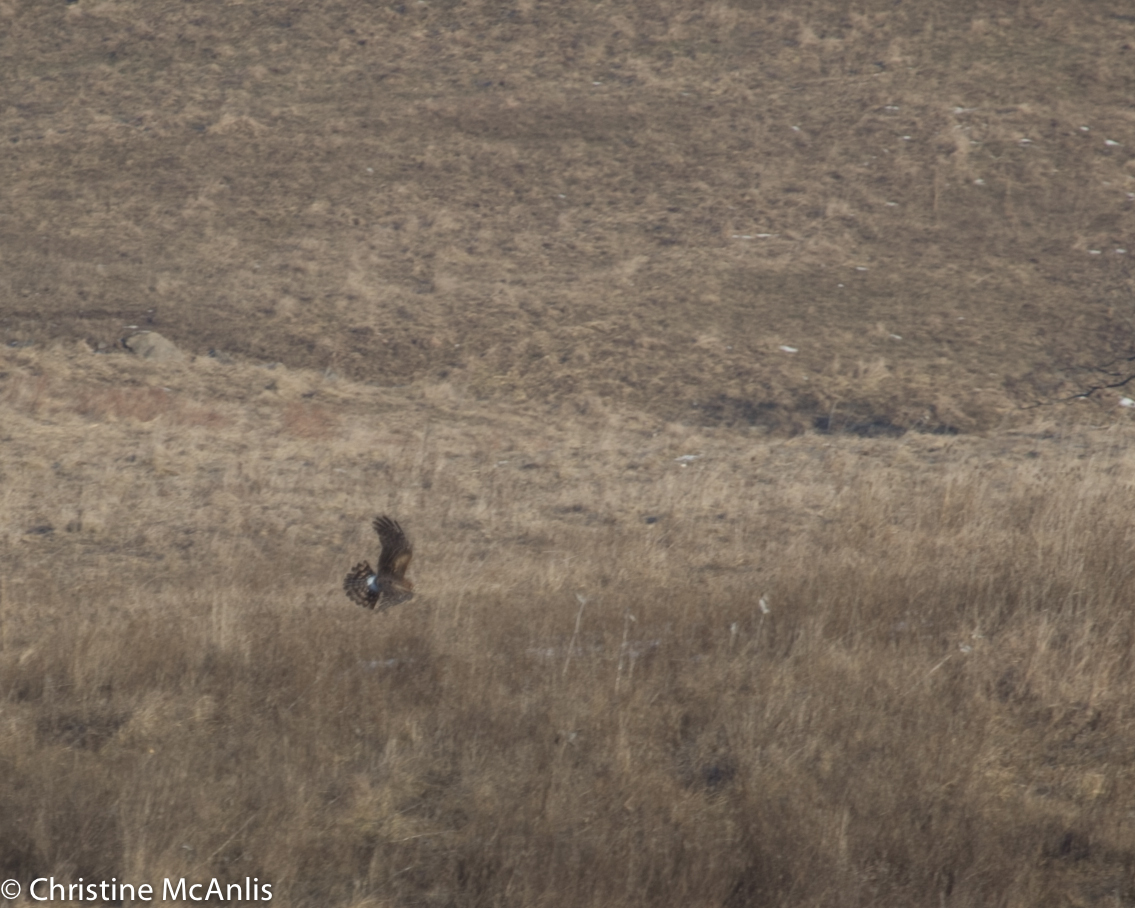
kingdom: Animalia
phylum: Chordata
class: Aves
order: Accipitriformes
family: Accipitridae
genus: Circus
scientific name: Circus cyaneus
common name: Hen harrier
